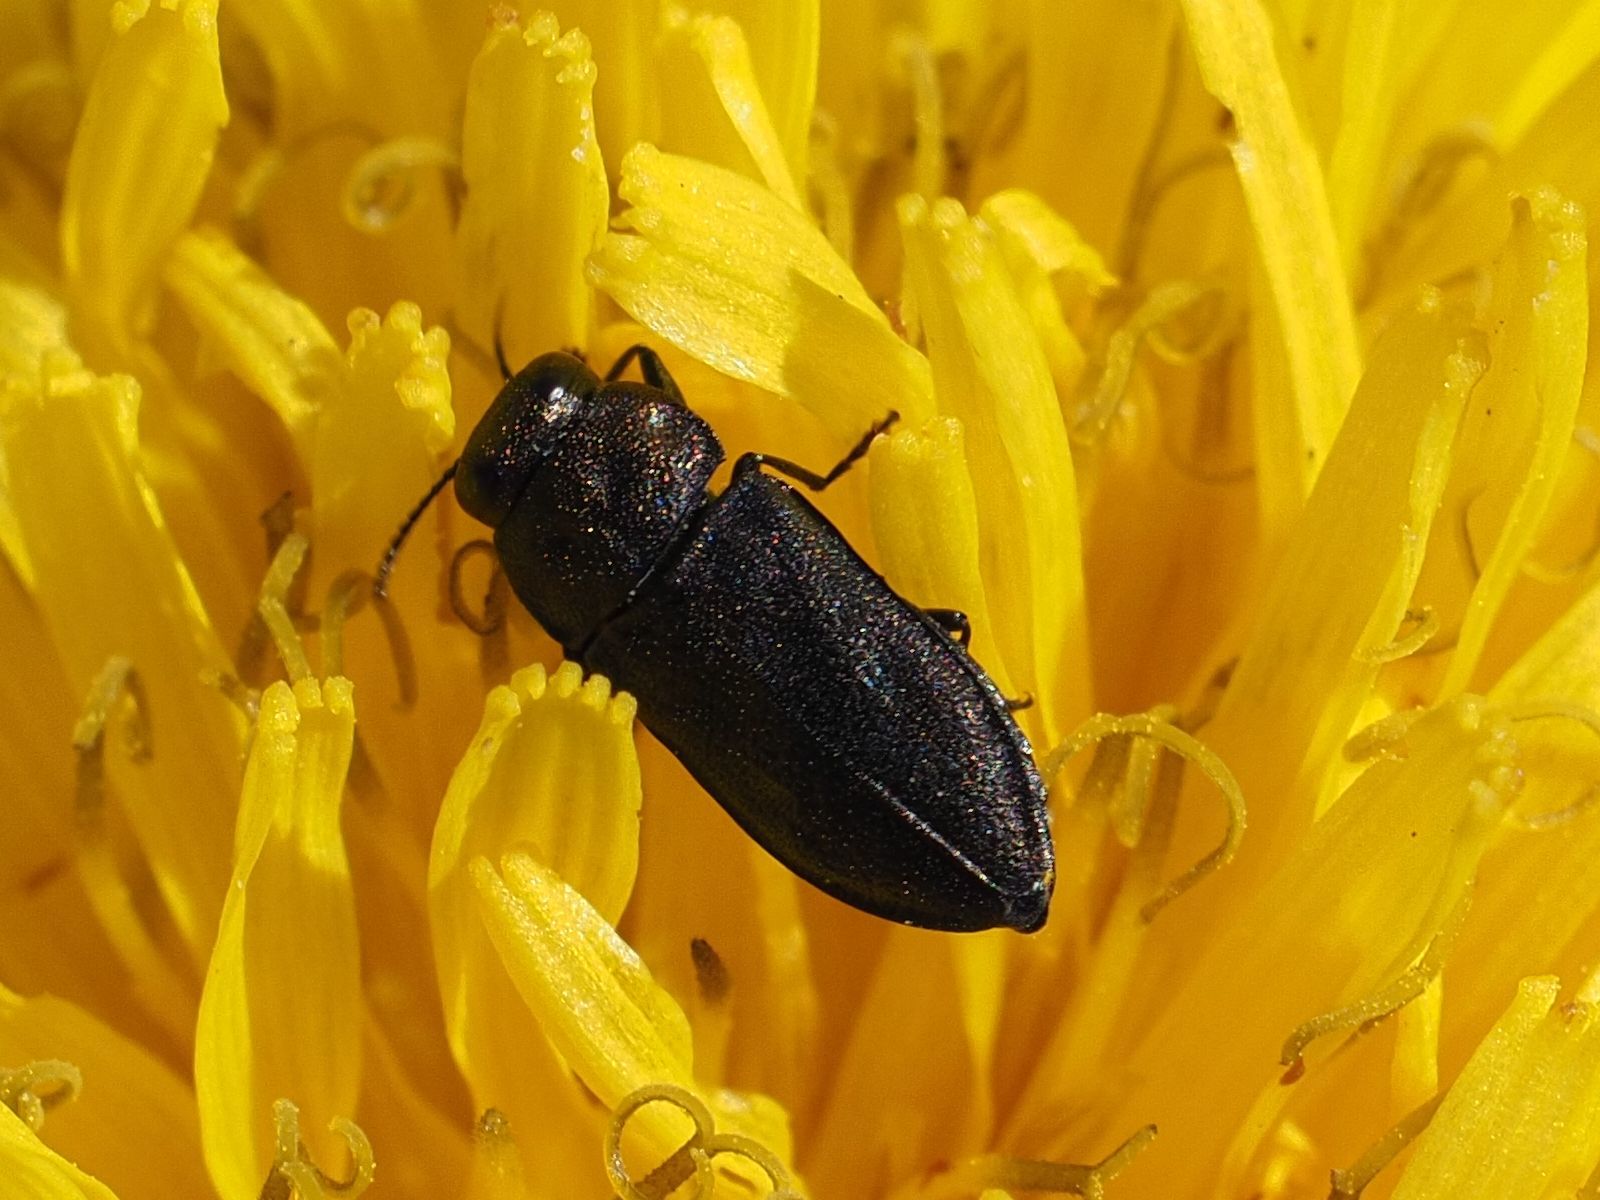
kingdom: Animalia
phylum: Arthropoda
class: Insecta
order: Coleoptera
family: Buprestidae
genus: Anthaxia
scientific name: Anthaxia quadripunctata
